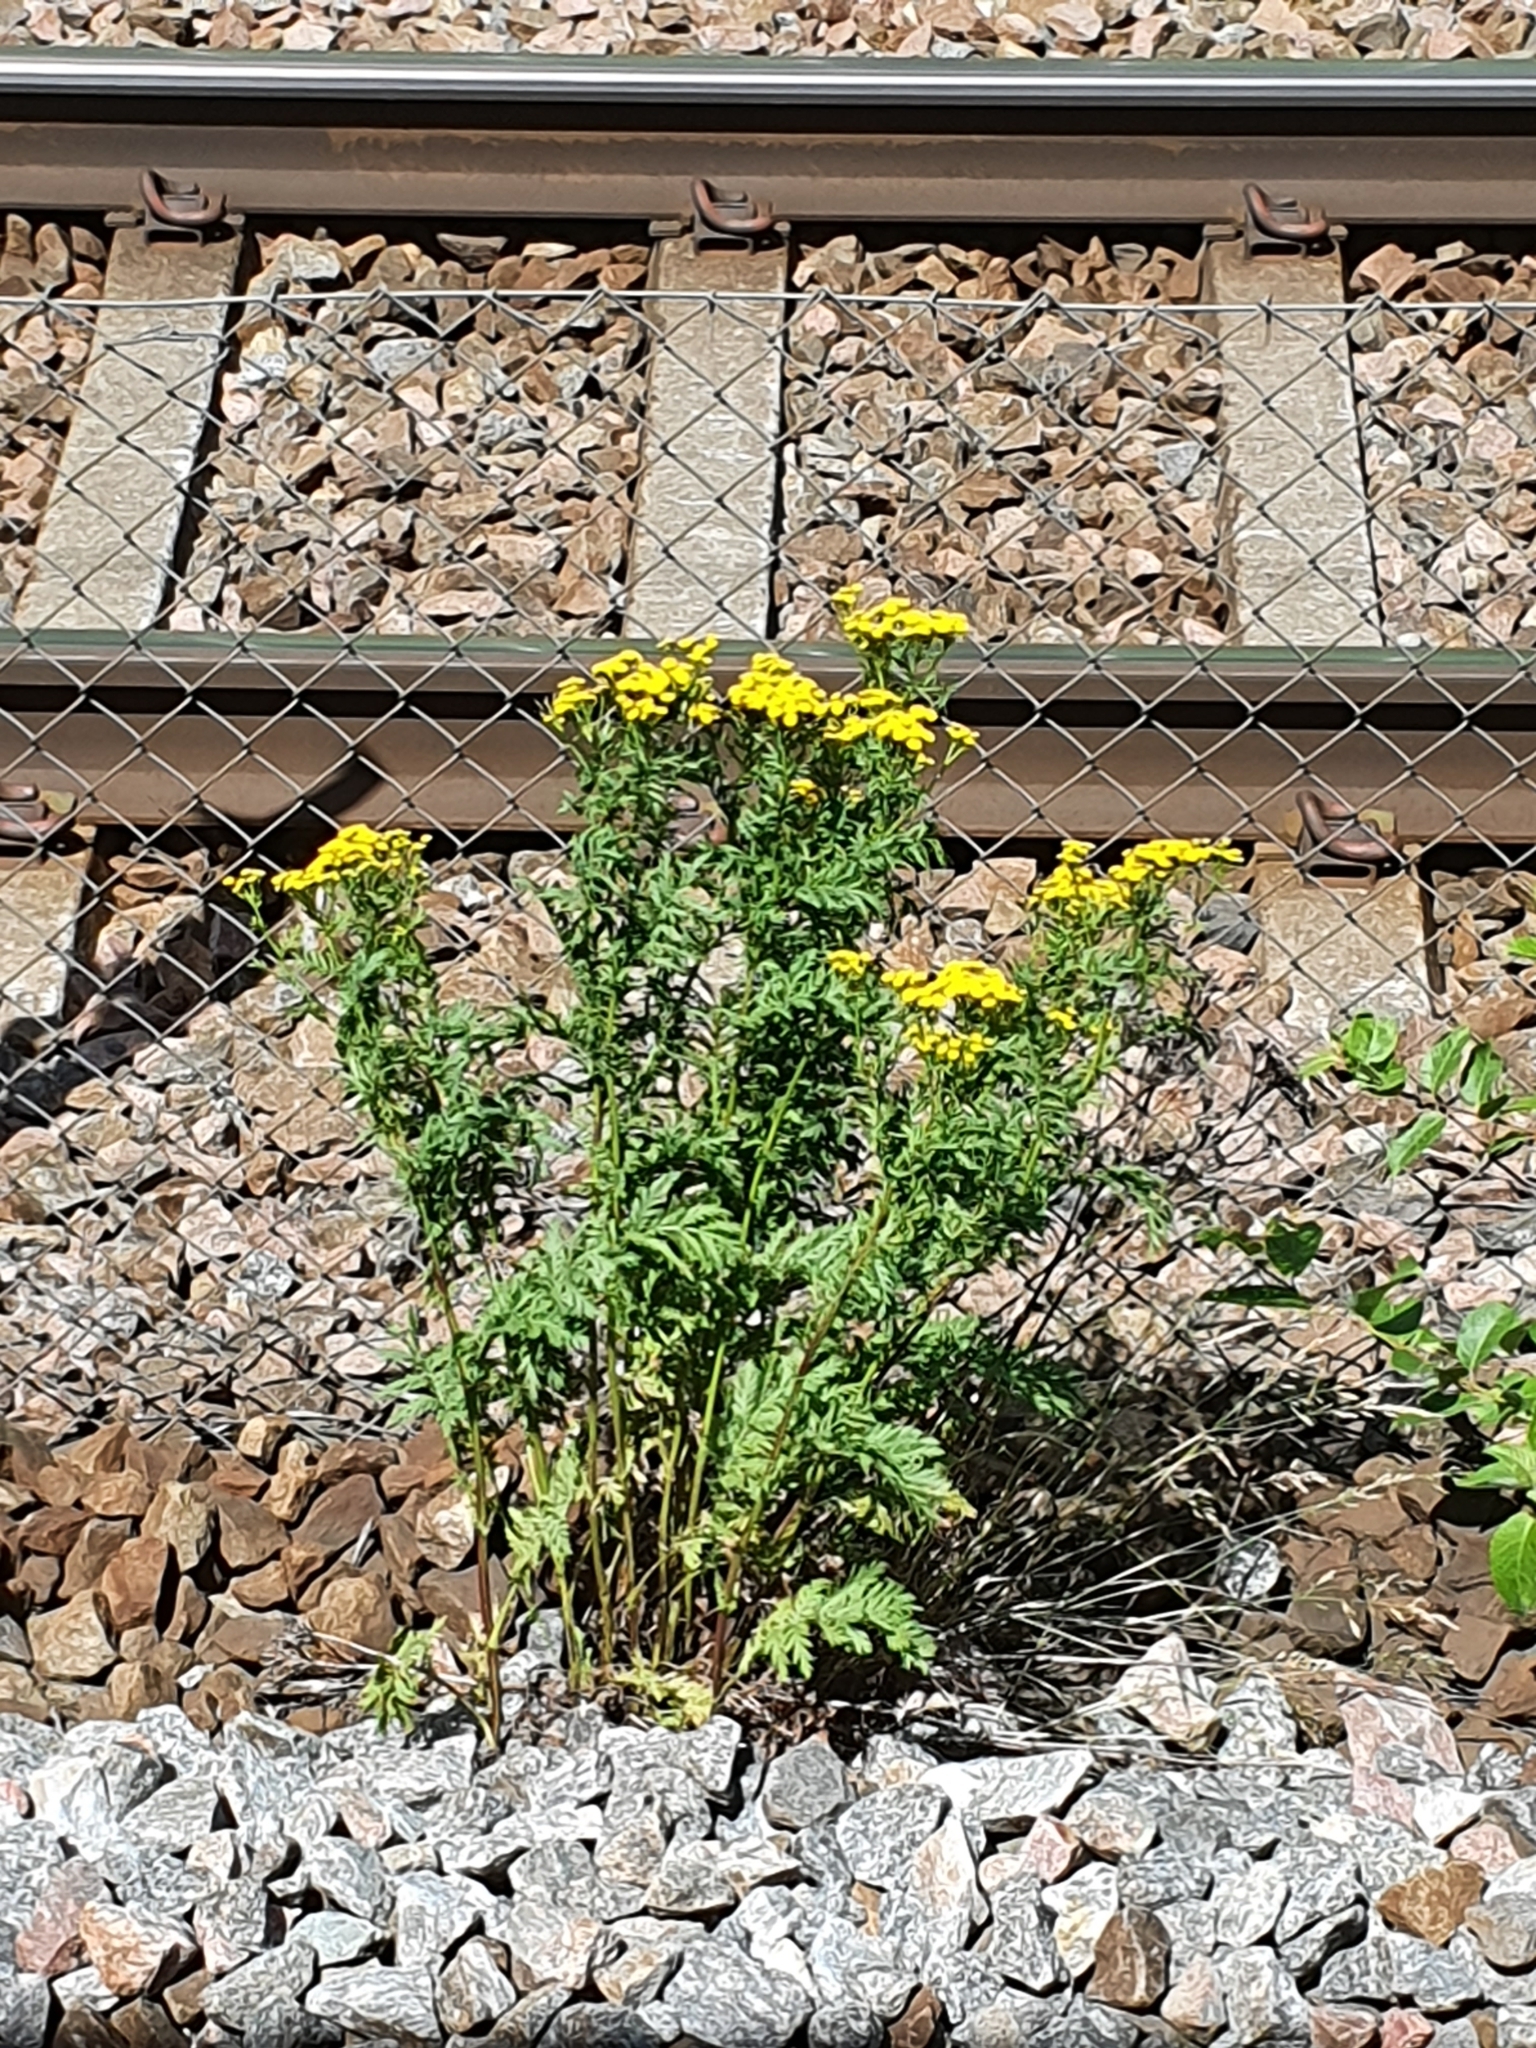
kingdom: Plantae
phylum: Tracheophyta
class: Magnoliopsida
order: Asterales
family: Asteraceae
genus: Tanacetum
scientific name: Tanacetum vulgare
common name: Common tansy
